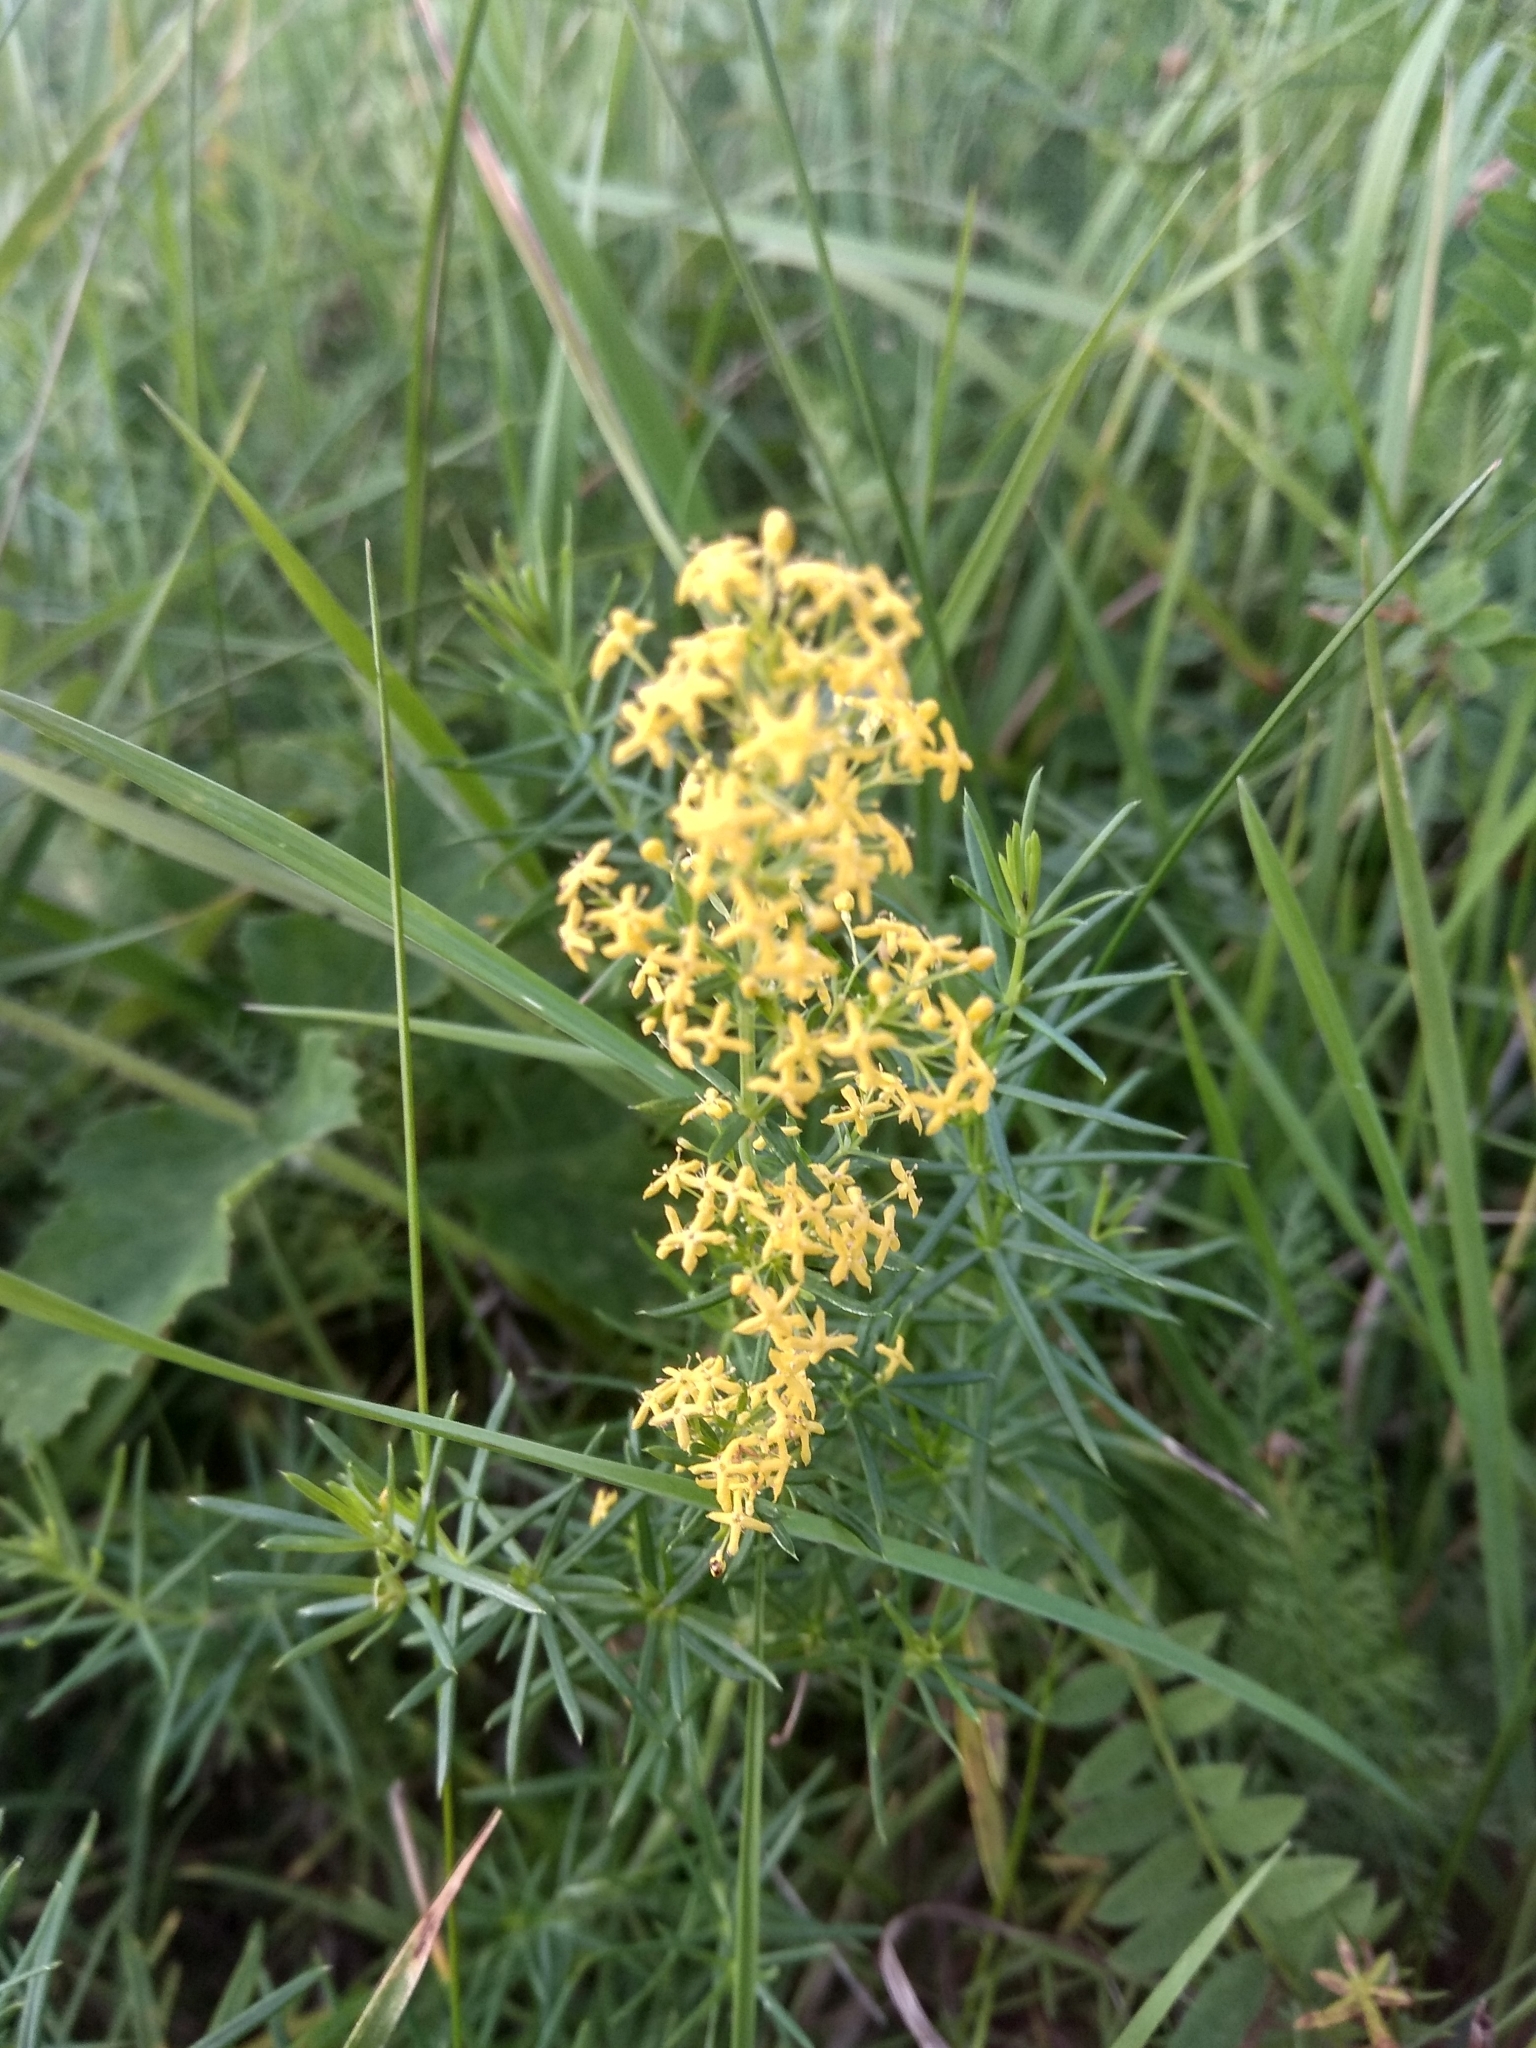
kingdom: Plantae
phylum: Tracheophyta
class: Magnoliopsida
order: Gentianales
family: Rubiaceae
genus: Galium
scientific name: Galium verum
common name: Lady's bedstraw
